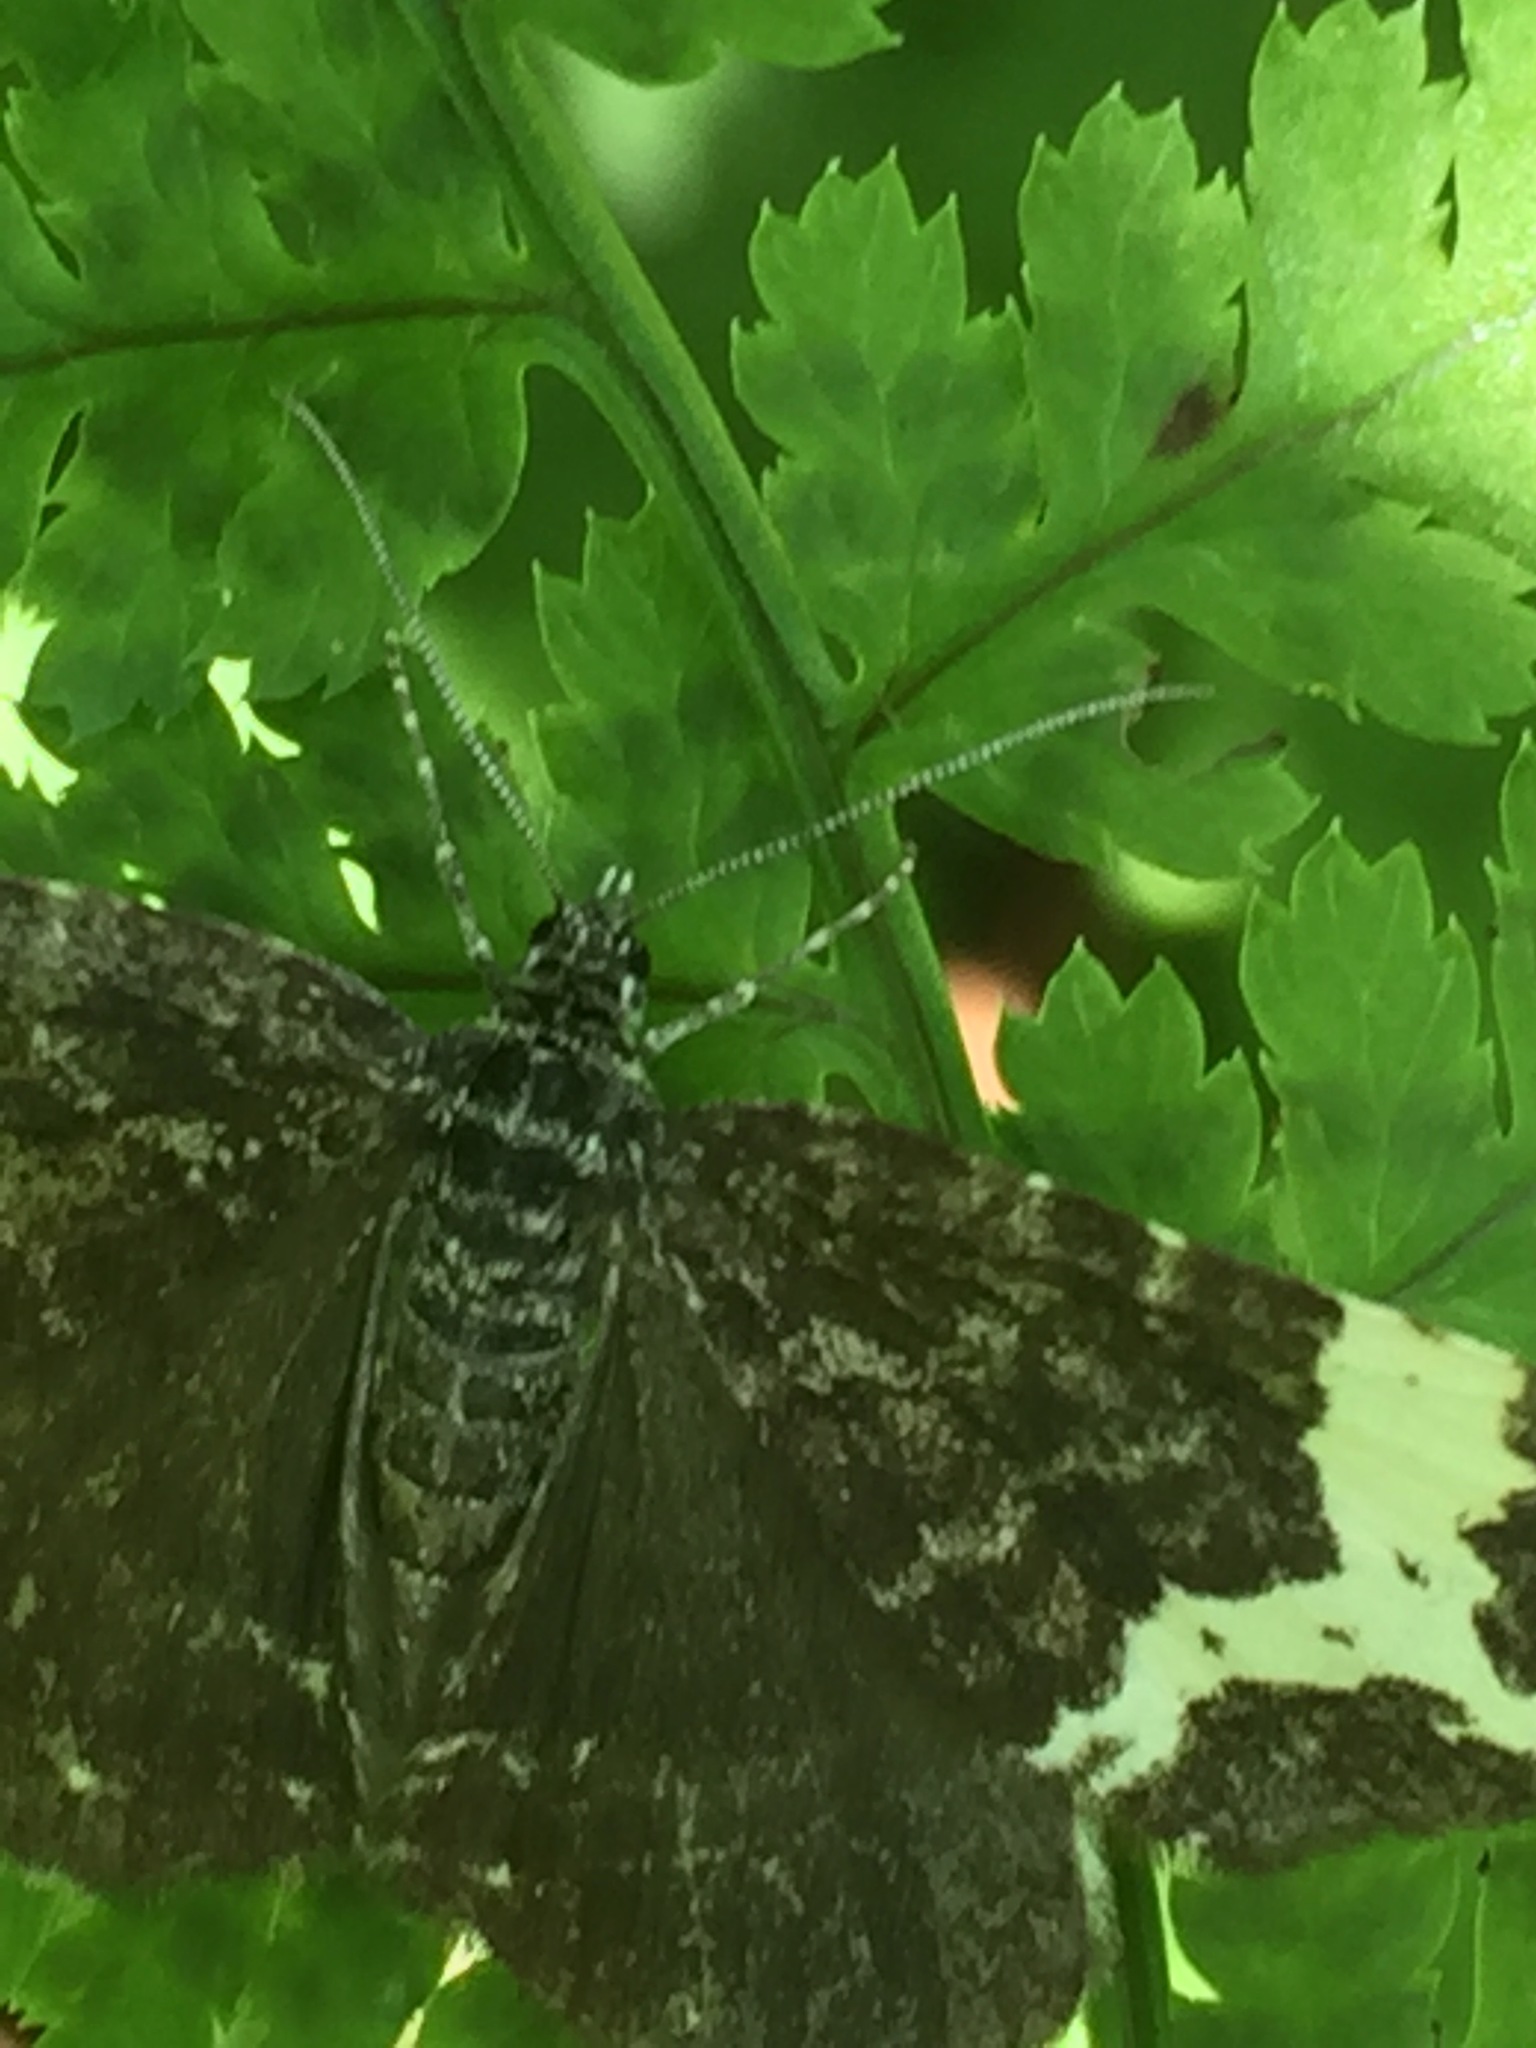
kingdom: Animalia
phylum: Arthropoda
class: Insecta
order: Lepidoptera
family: Geometridae
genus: Rheumaptera
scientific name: Rheumaptera
